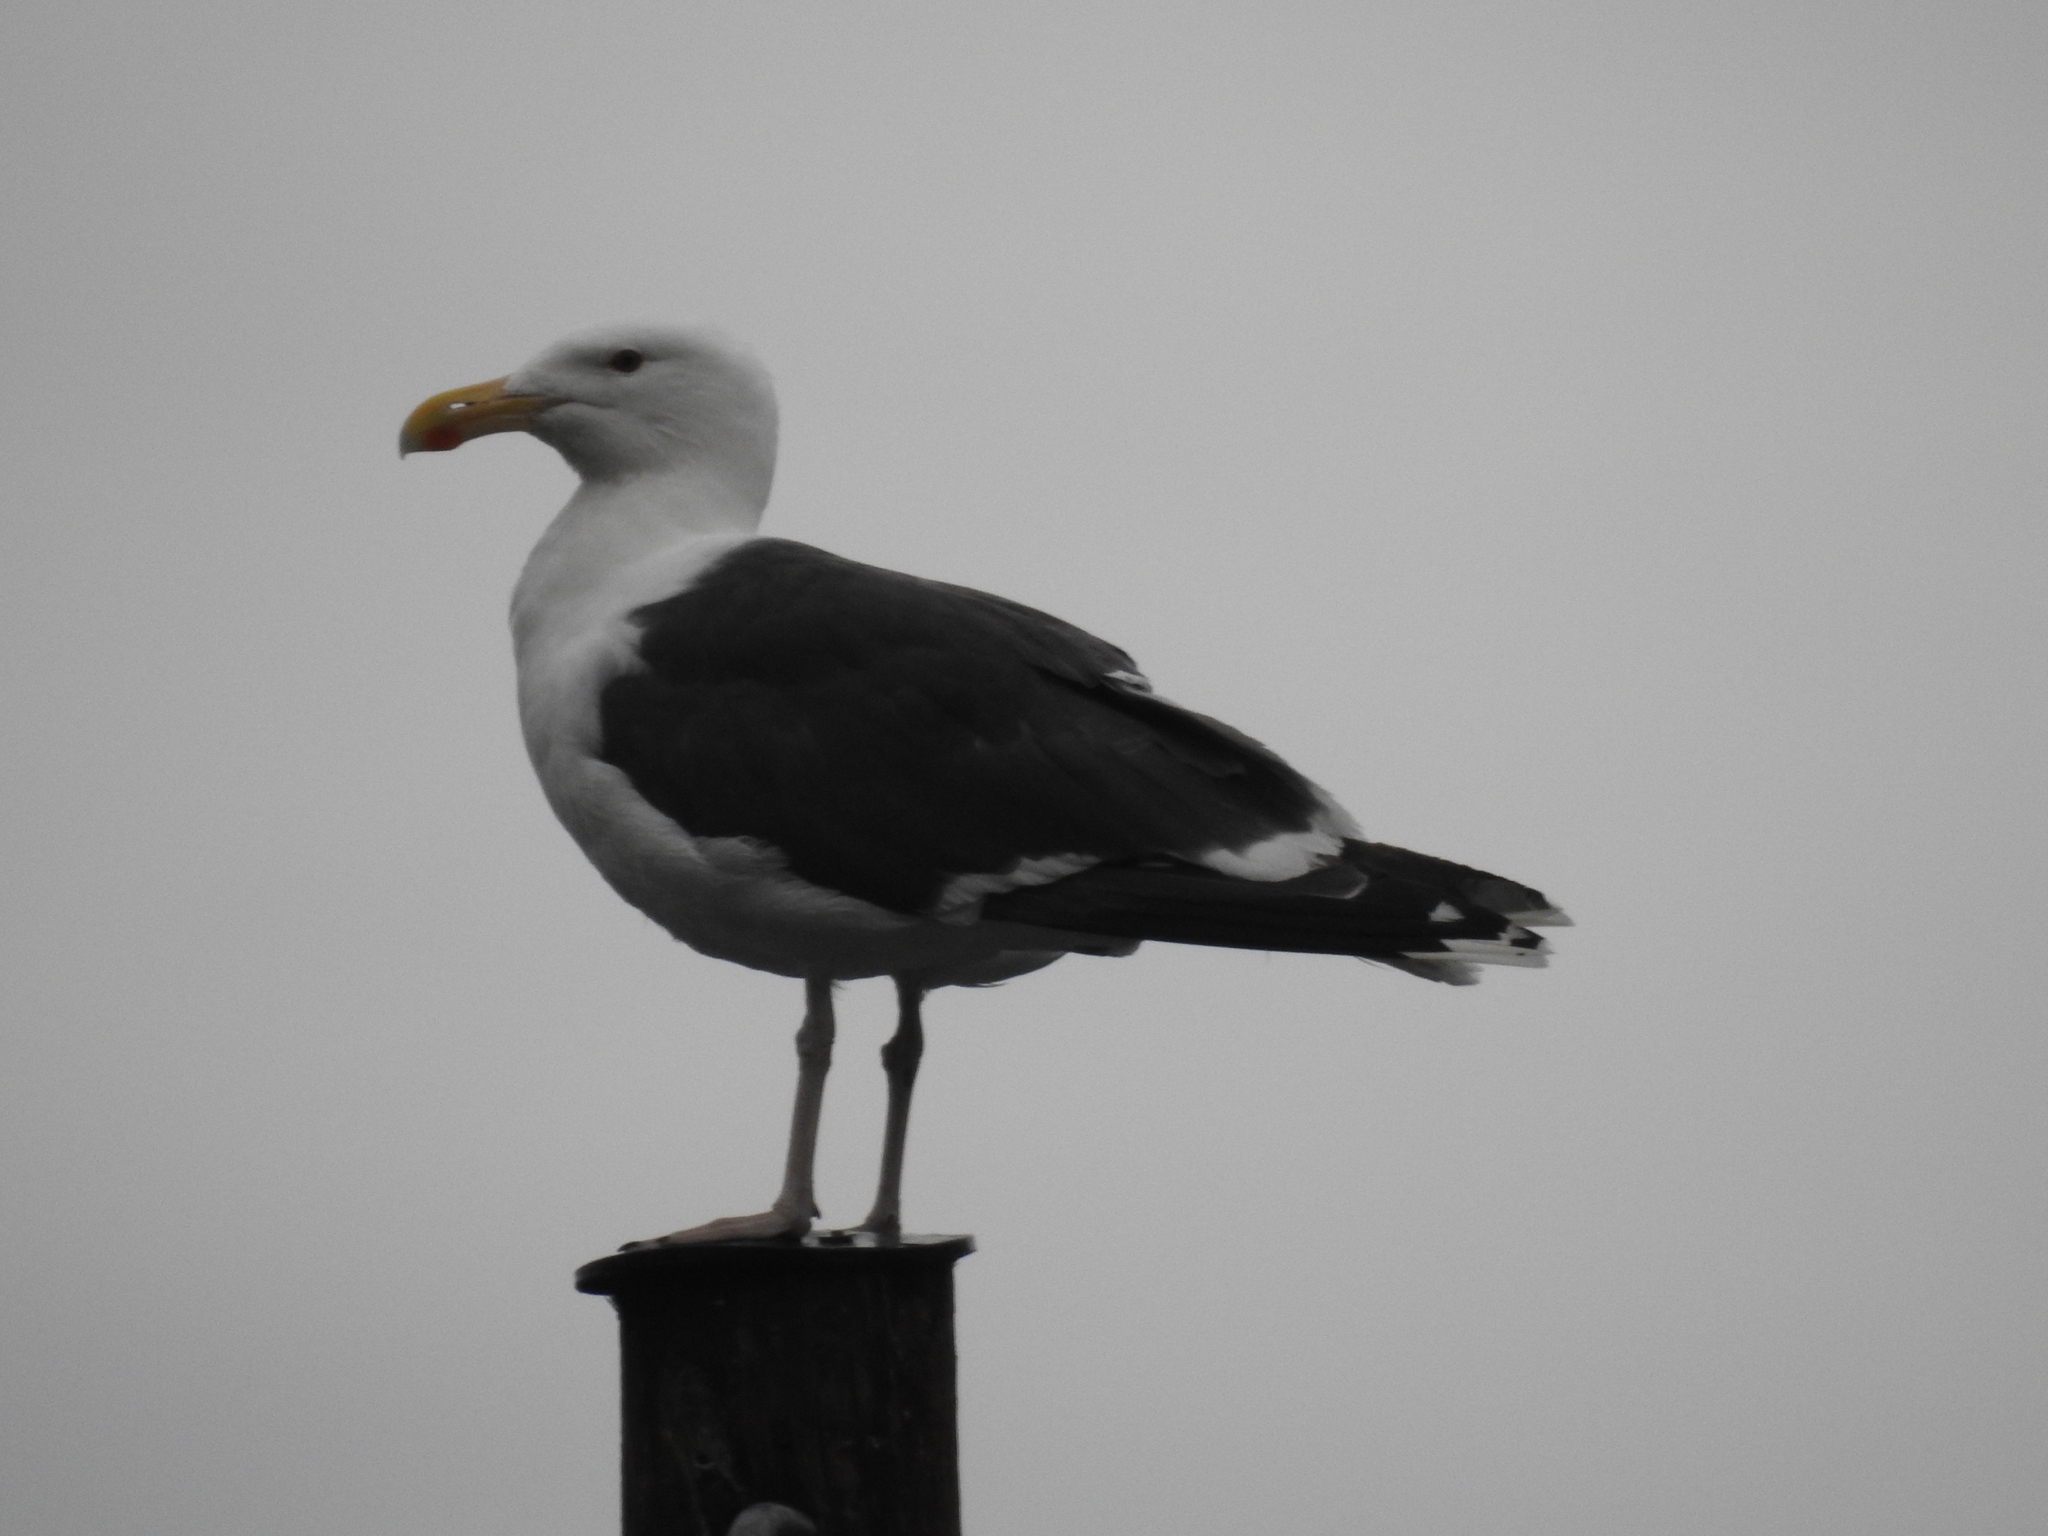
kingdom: Animalia
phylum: Chordata
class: Aves
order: Charadriiformes
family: Laridae
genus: Larus
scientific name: Larus marinus
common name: Great black-backed gull
